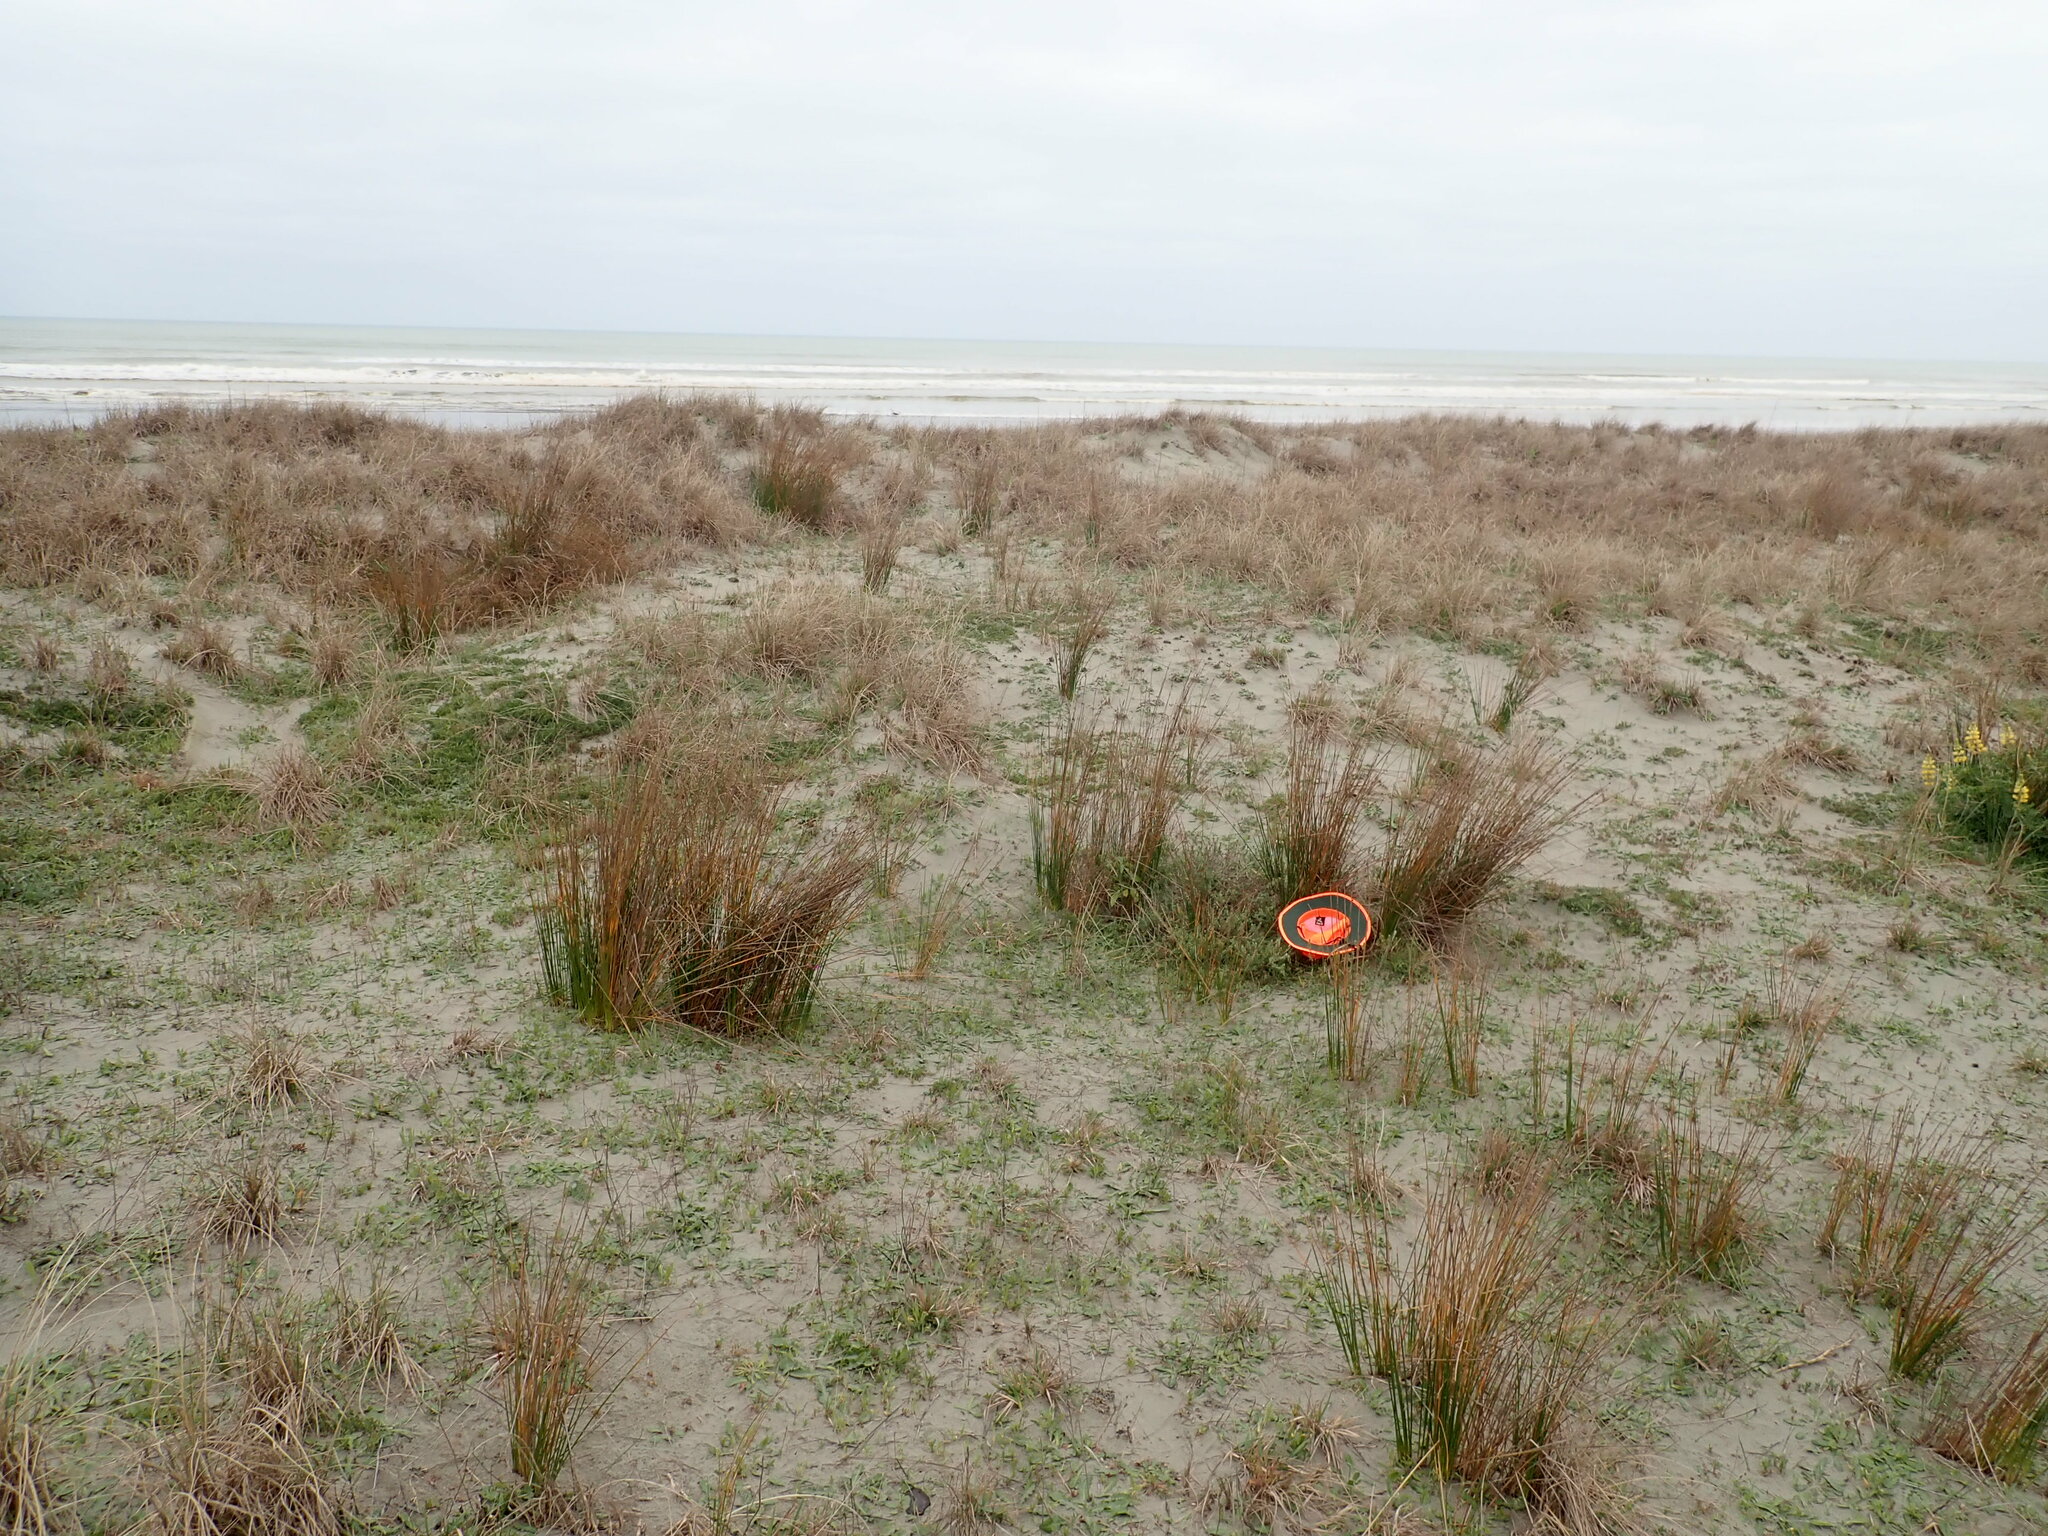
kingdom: Plantae
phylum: Tracheophyta
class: Magnoliopsida
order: Malvales
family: Thymelaeaceae
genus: Pimelea
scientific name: Pimelea villosa
